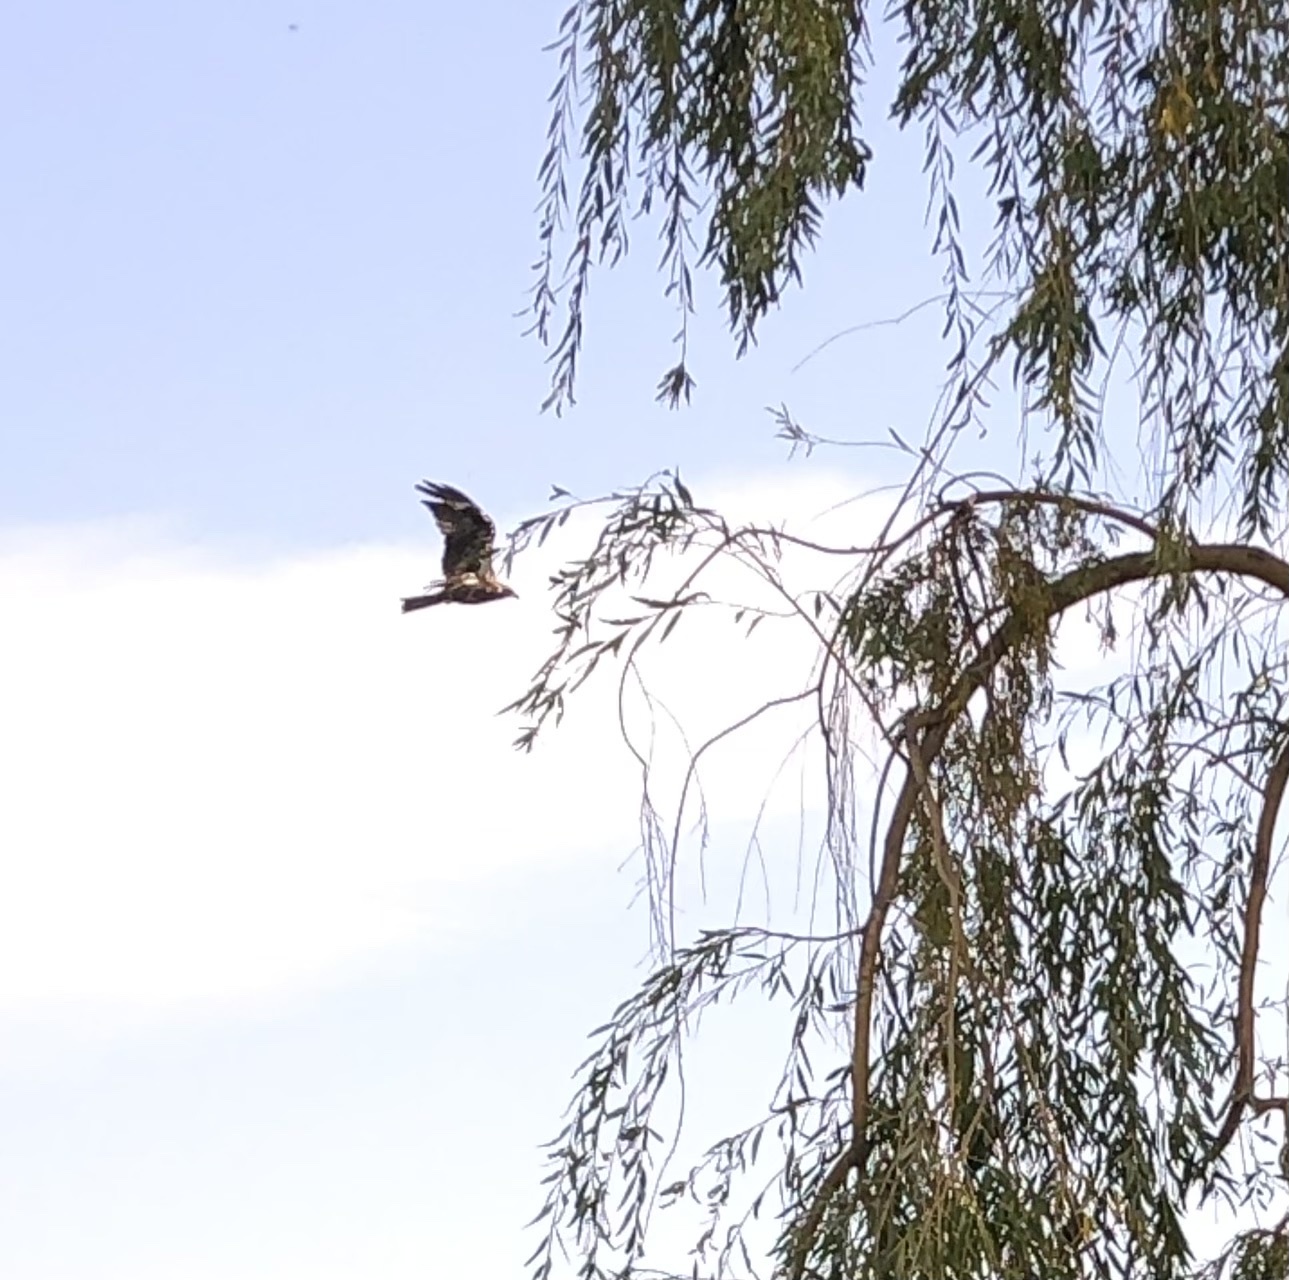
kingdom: Animalia
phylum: Chordata
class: Aves
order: Accipitriformes
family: Accipitridae
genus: Milvus
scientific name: Milvus migrans
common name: Black kite
